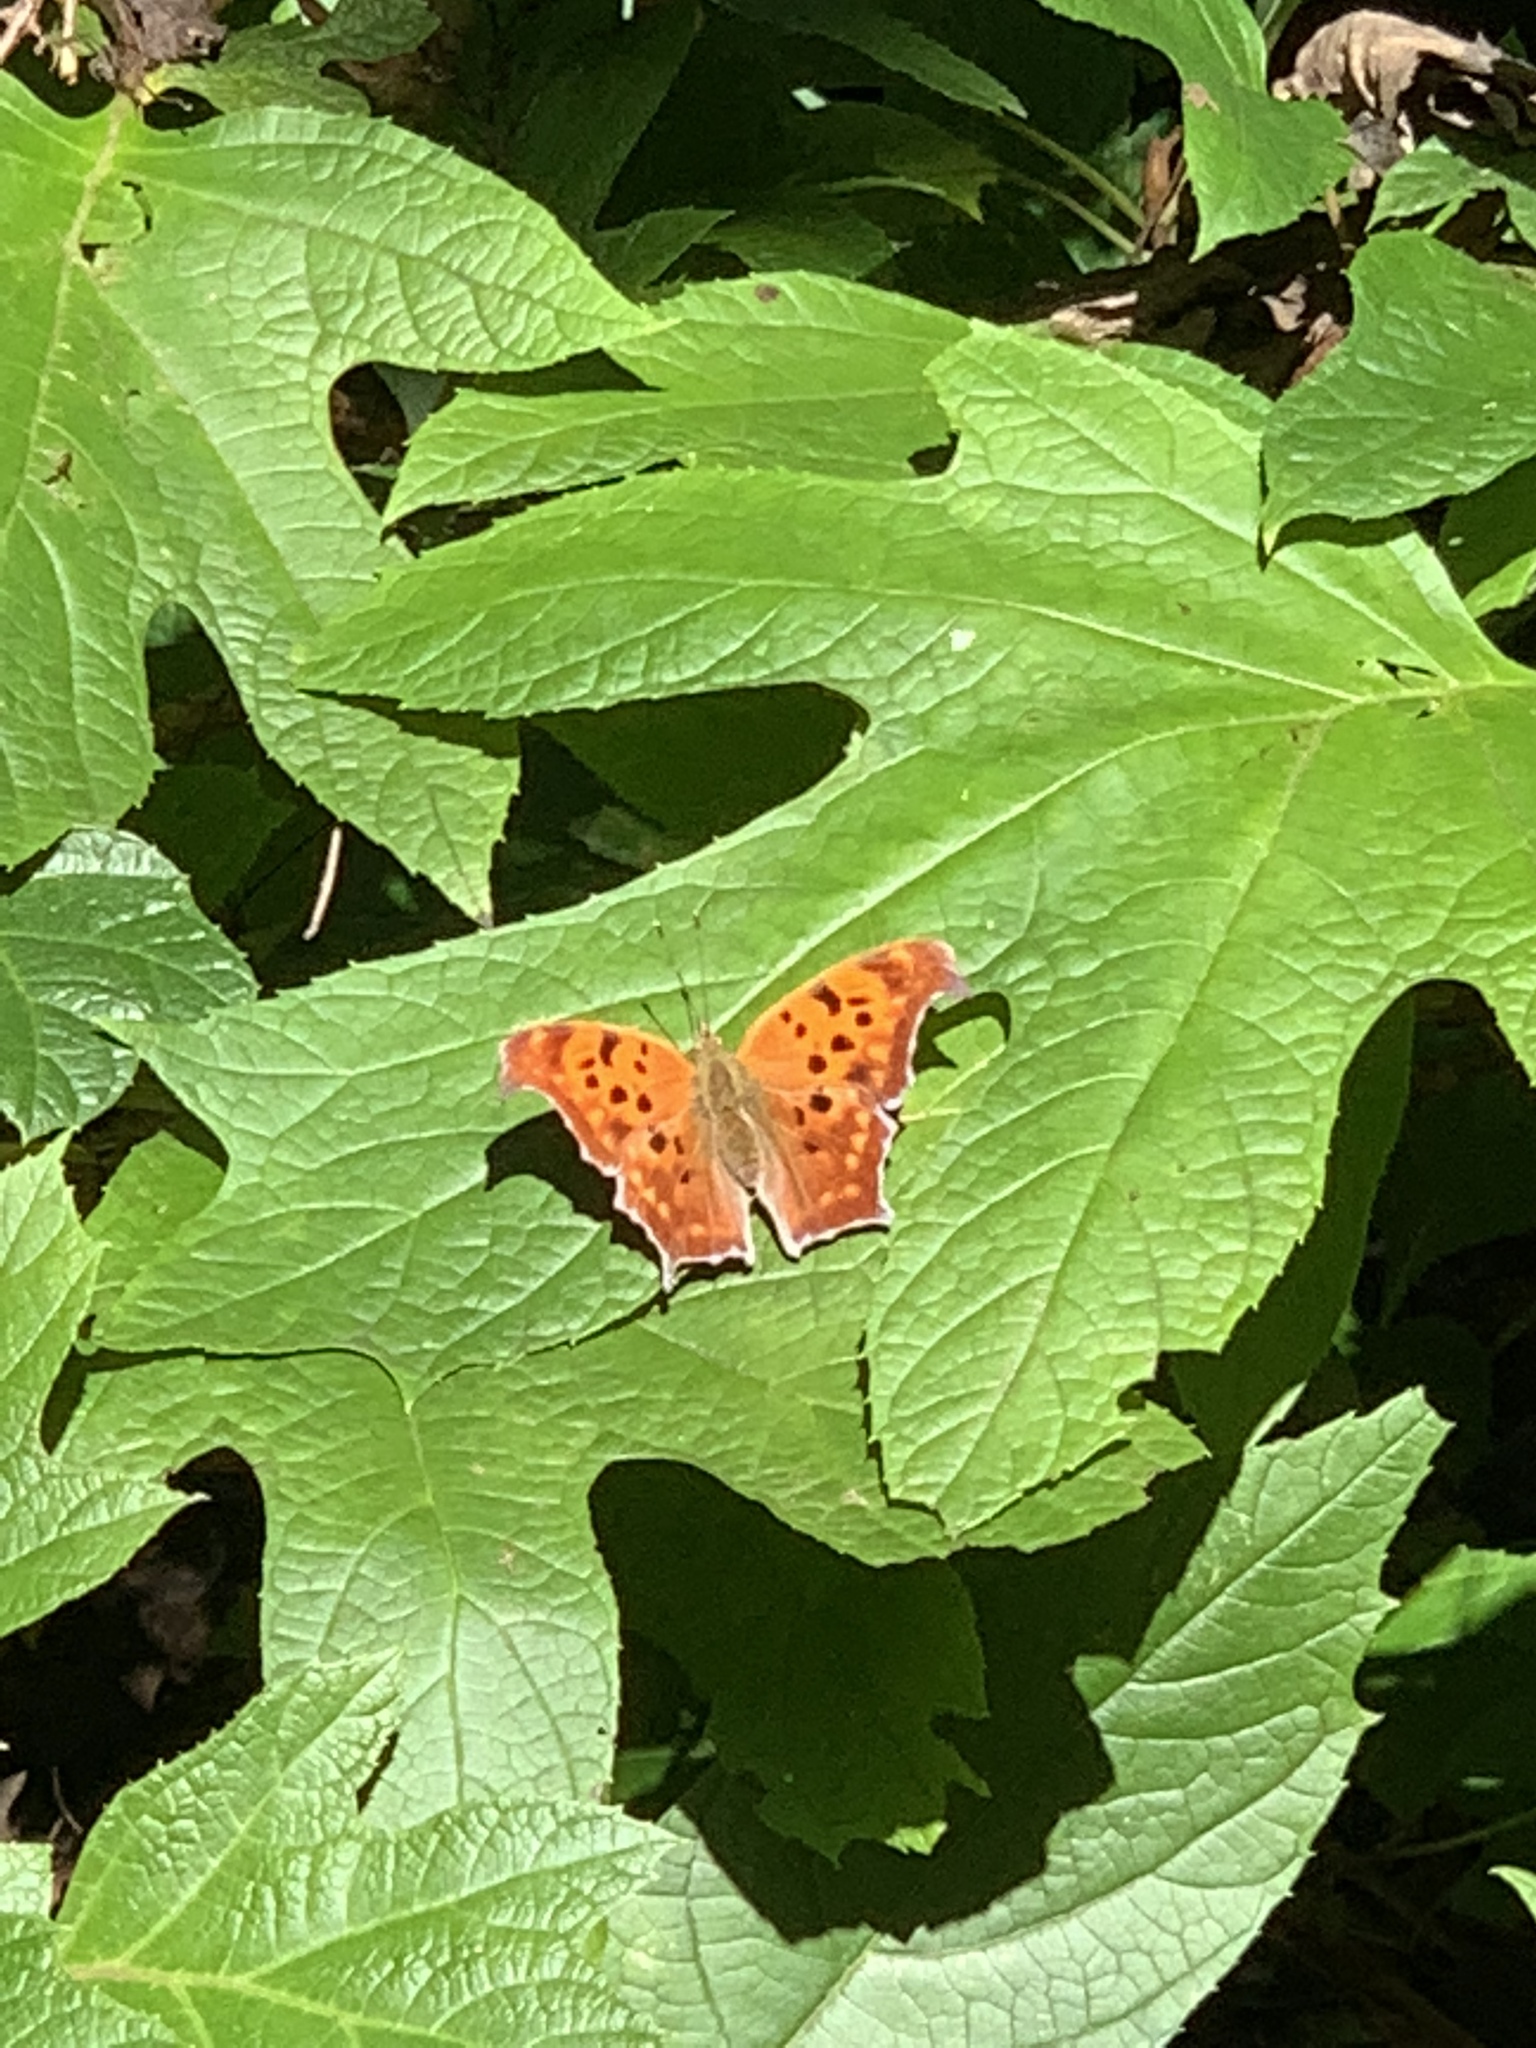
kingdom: Animalia
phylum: Arthropoda
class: Insecta
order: Lepidoptera
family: Nymphalidae
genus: Polygonia
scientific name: Polygonia interrogationis
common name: Question mark
